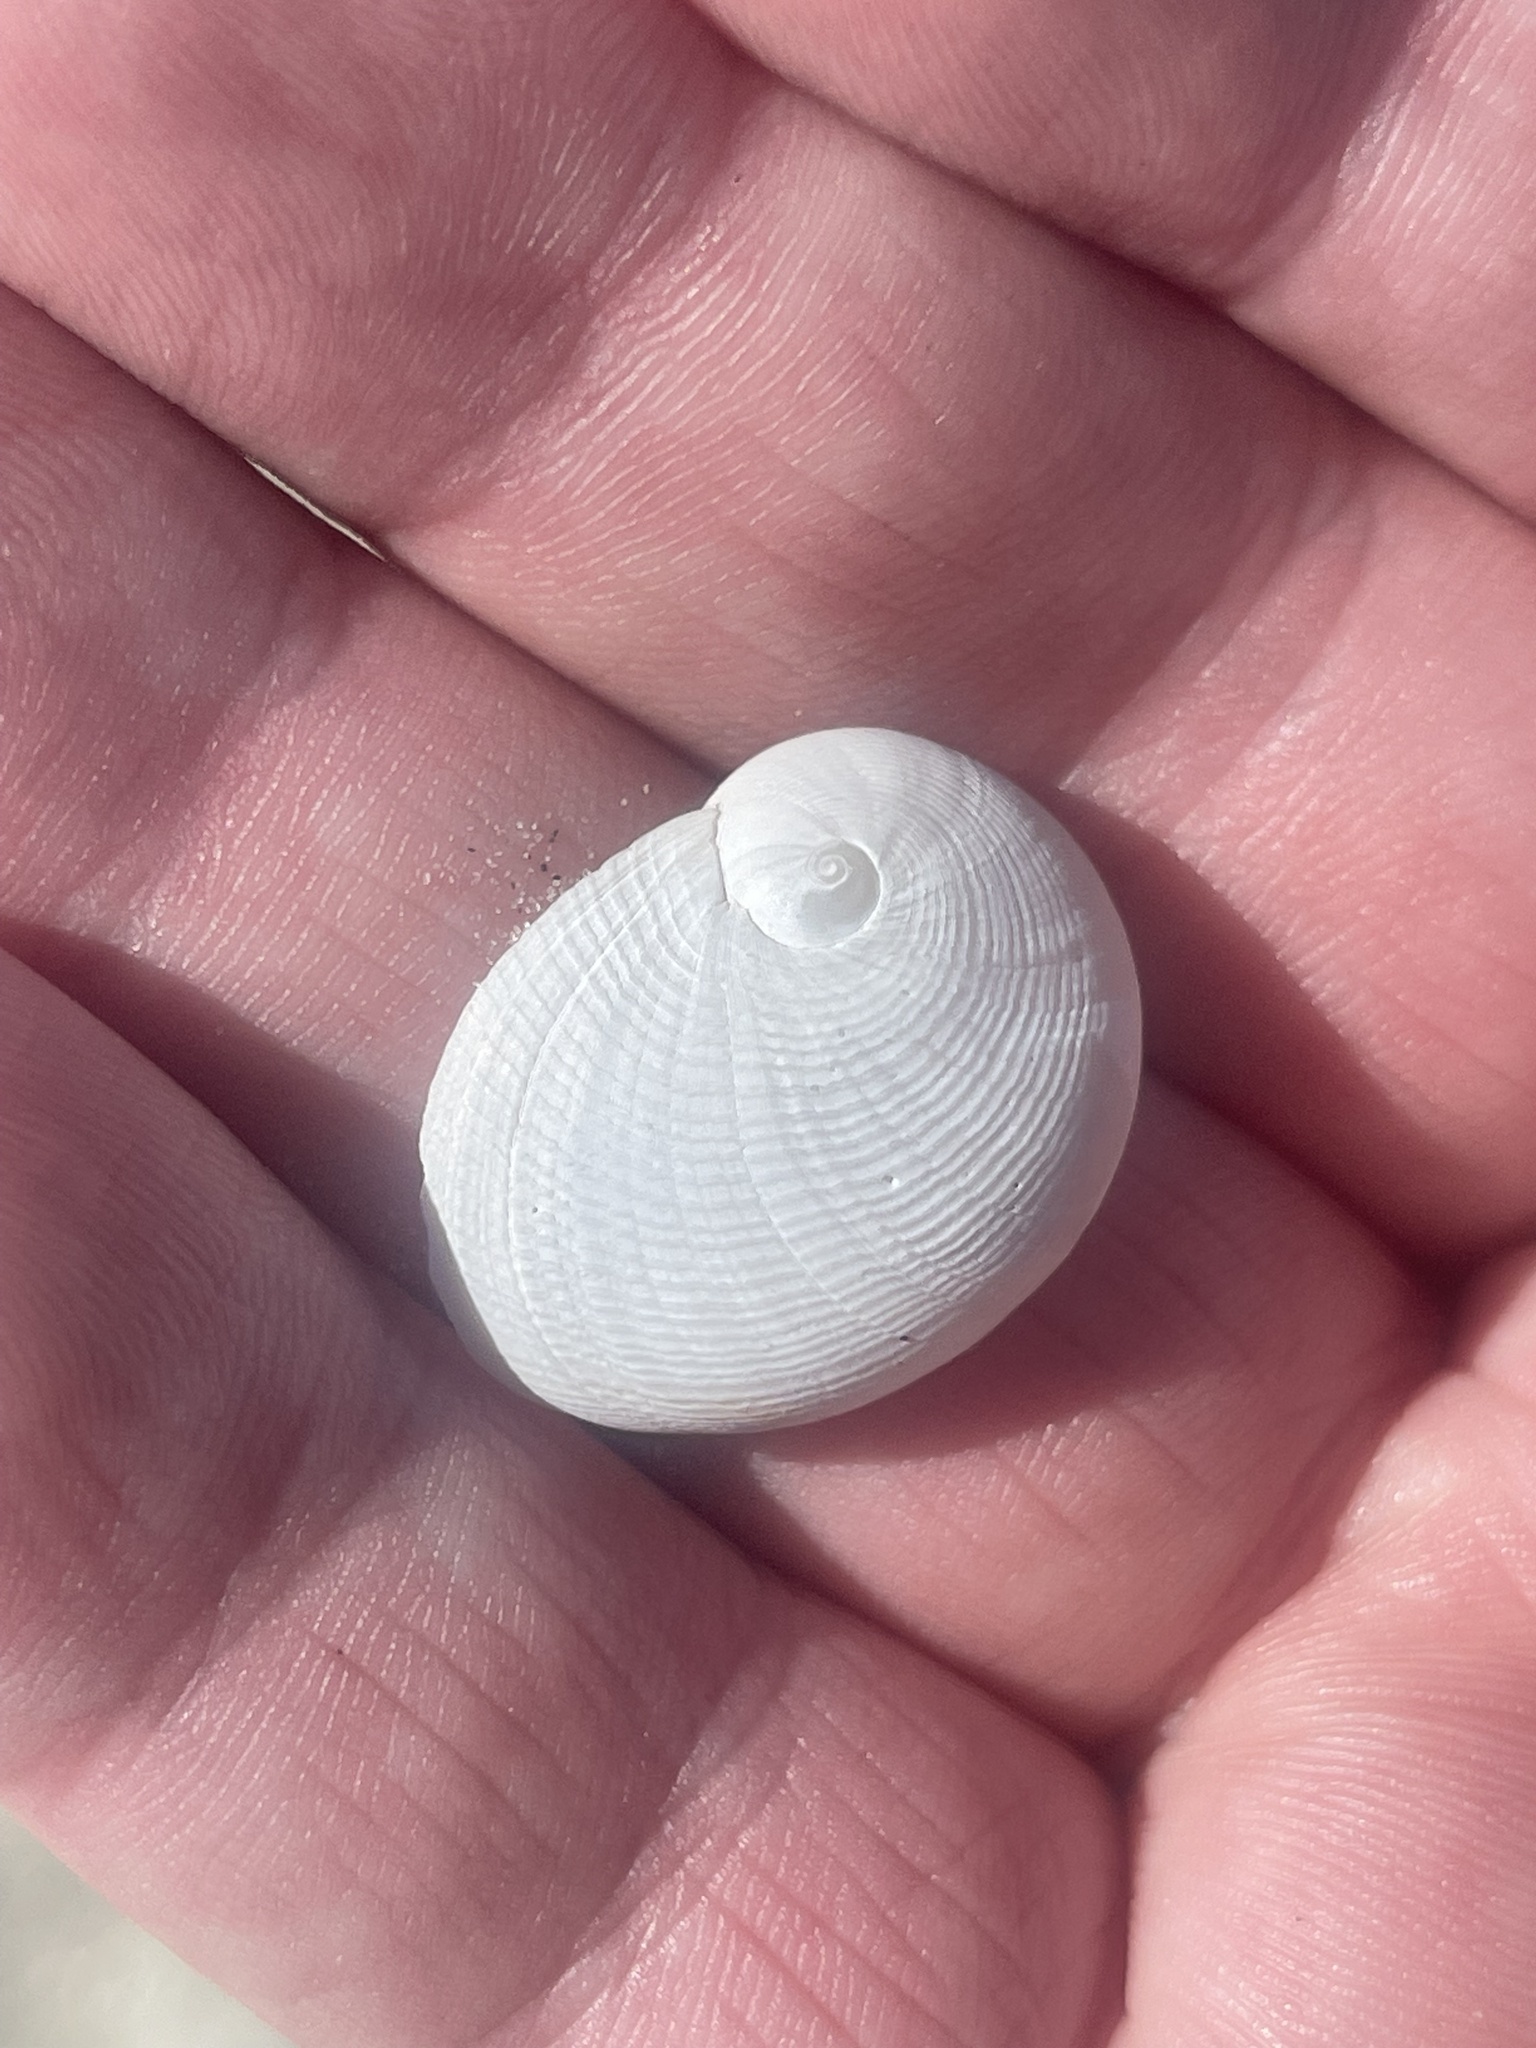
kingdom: Animalia
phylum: Mollusca
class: Gastropoda
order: Littorinimorpha
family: Naticidae
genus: Sinum
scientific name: Sinum perspectivum
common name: White baby ear
